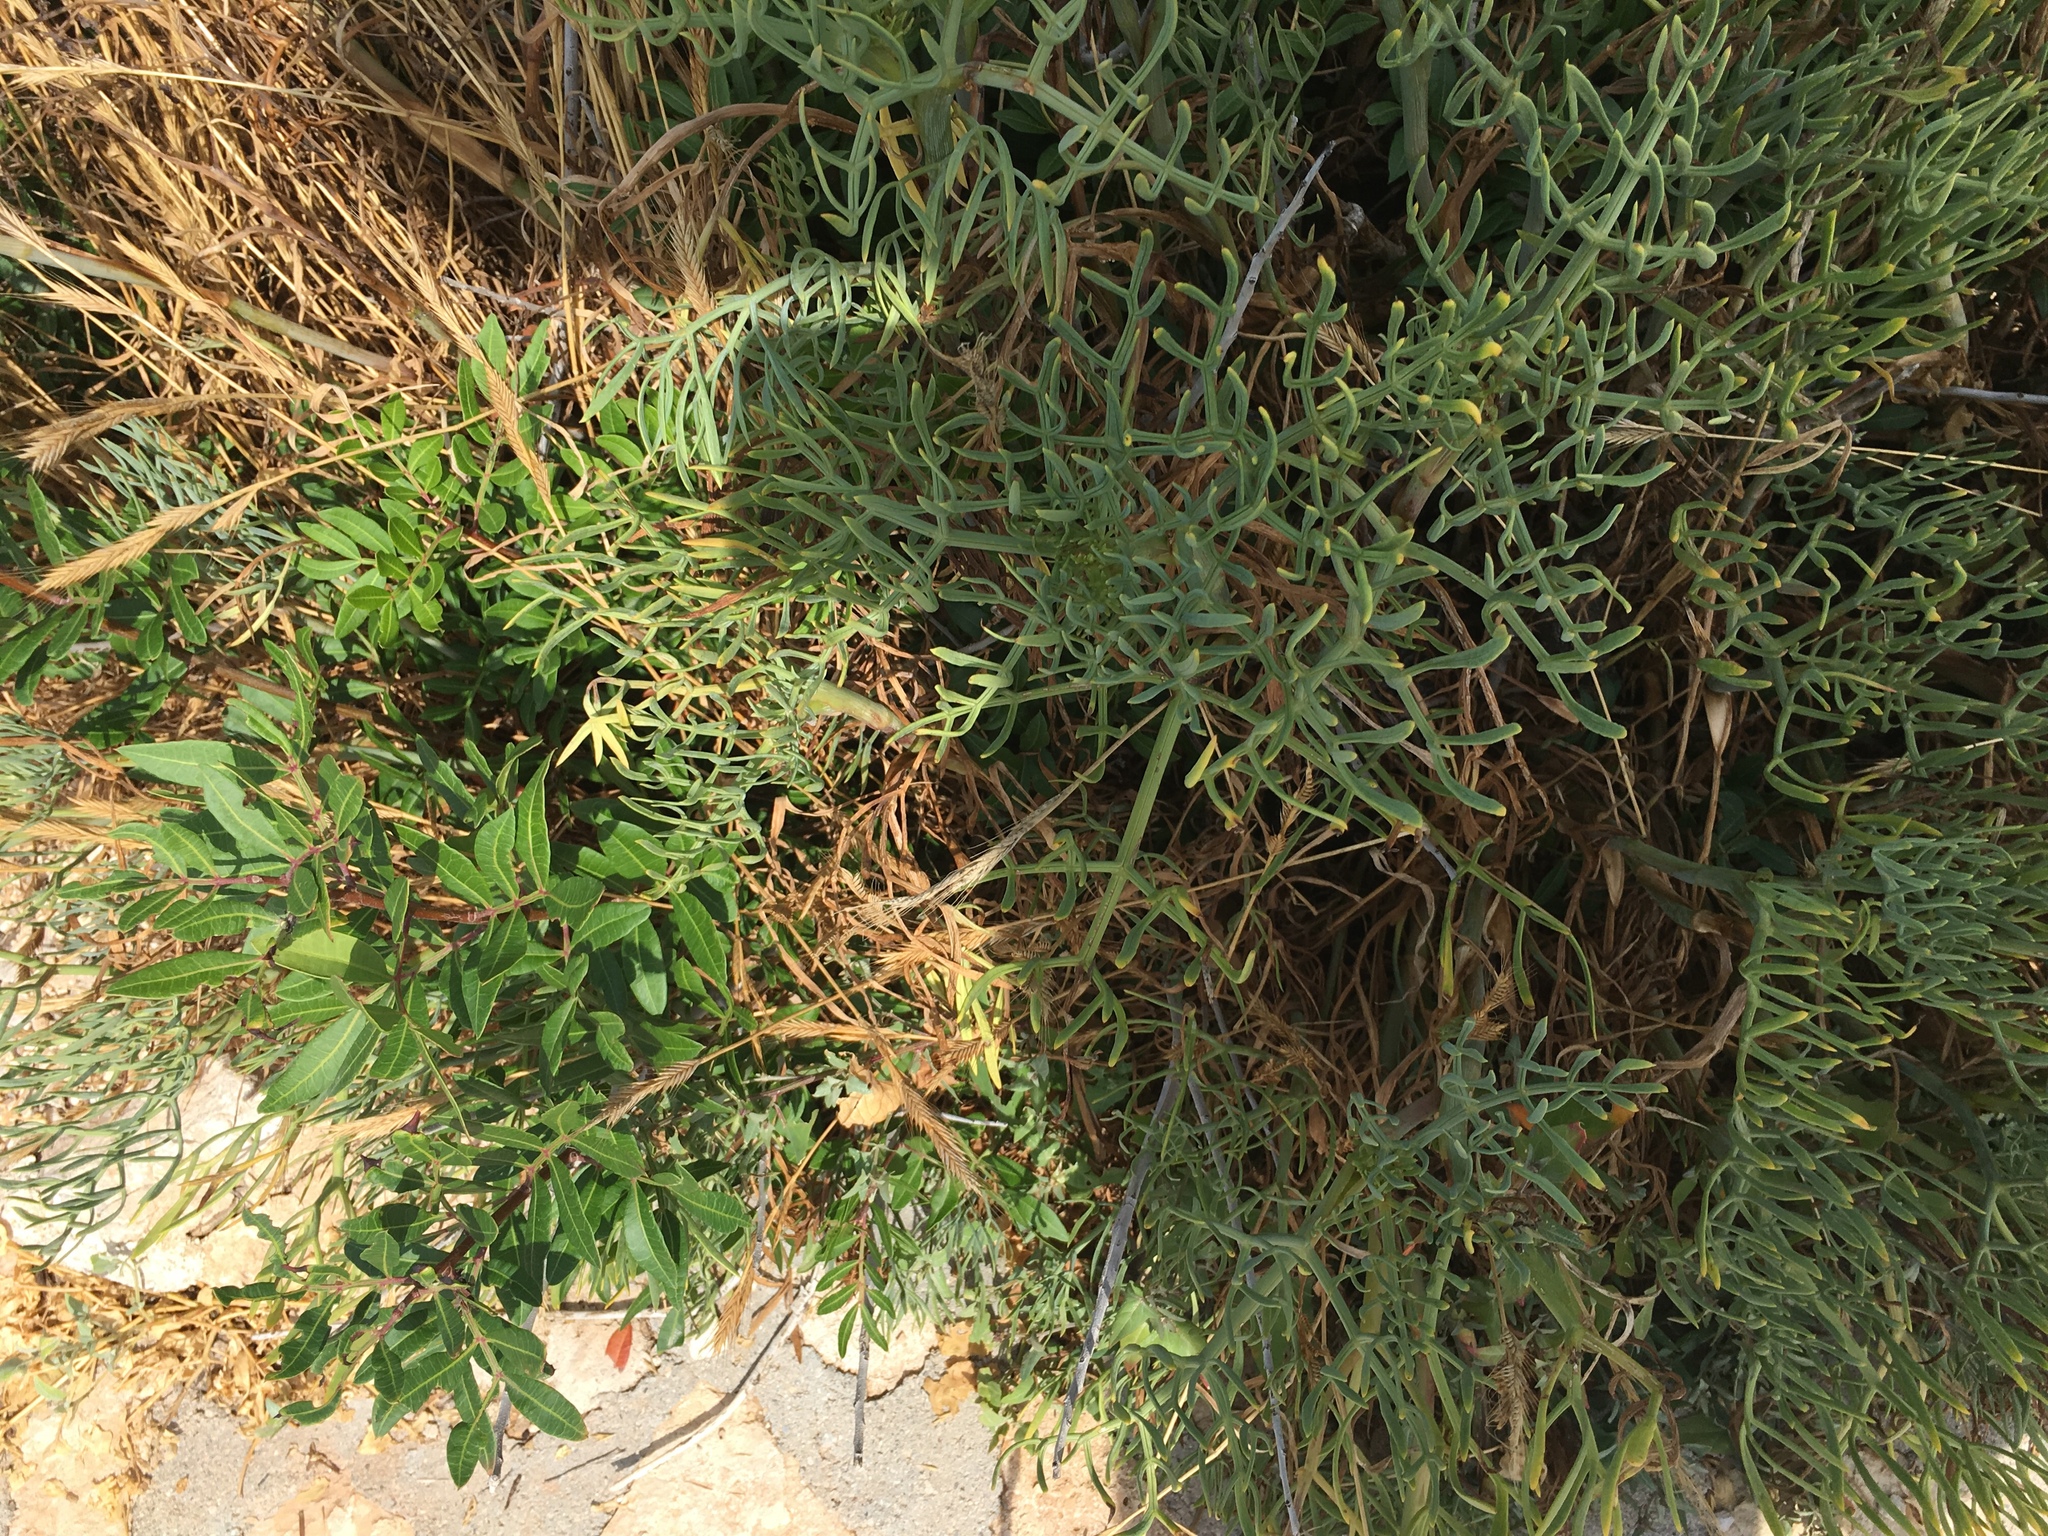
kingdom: Plantae
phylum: Tracheophyta
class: Magnoliopsida
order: Apiales
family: Apiaceae
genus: Crithmum
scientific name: Crithmum maritimum
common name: Rock samphire
